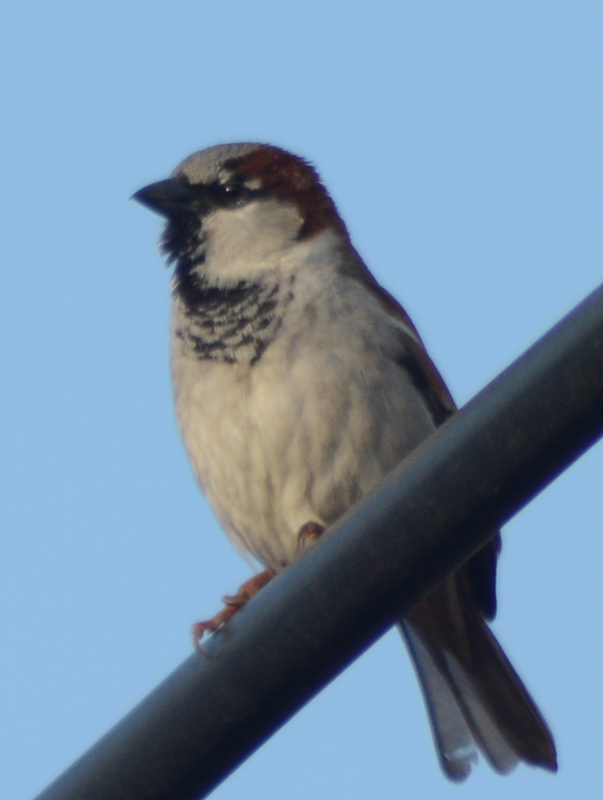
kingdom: Animalia
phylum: Chordata
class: Aves
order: Passeriformes
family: Passeridae
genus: Passer
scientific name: Passer domesticus
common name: House sparrow
